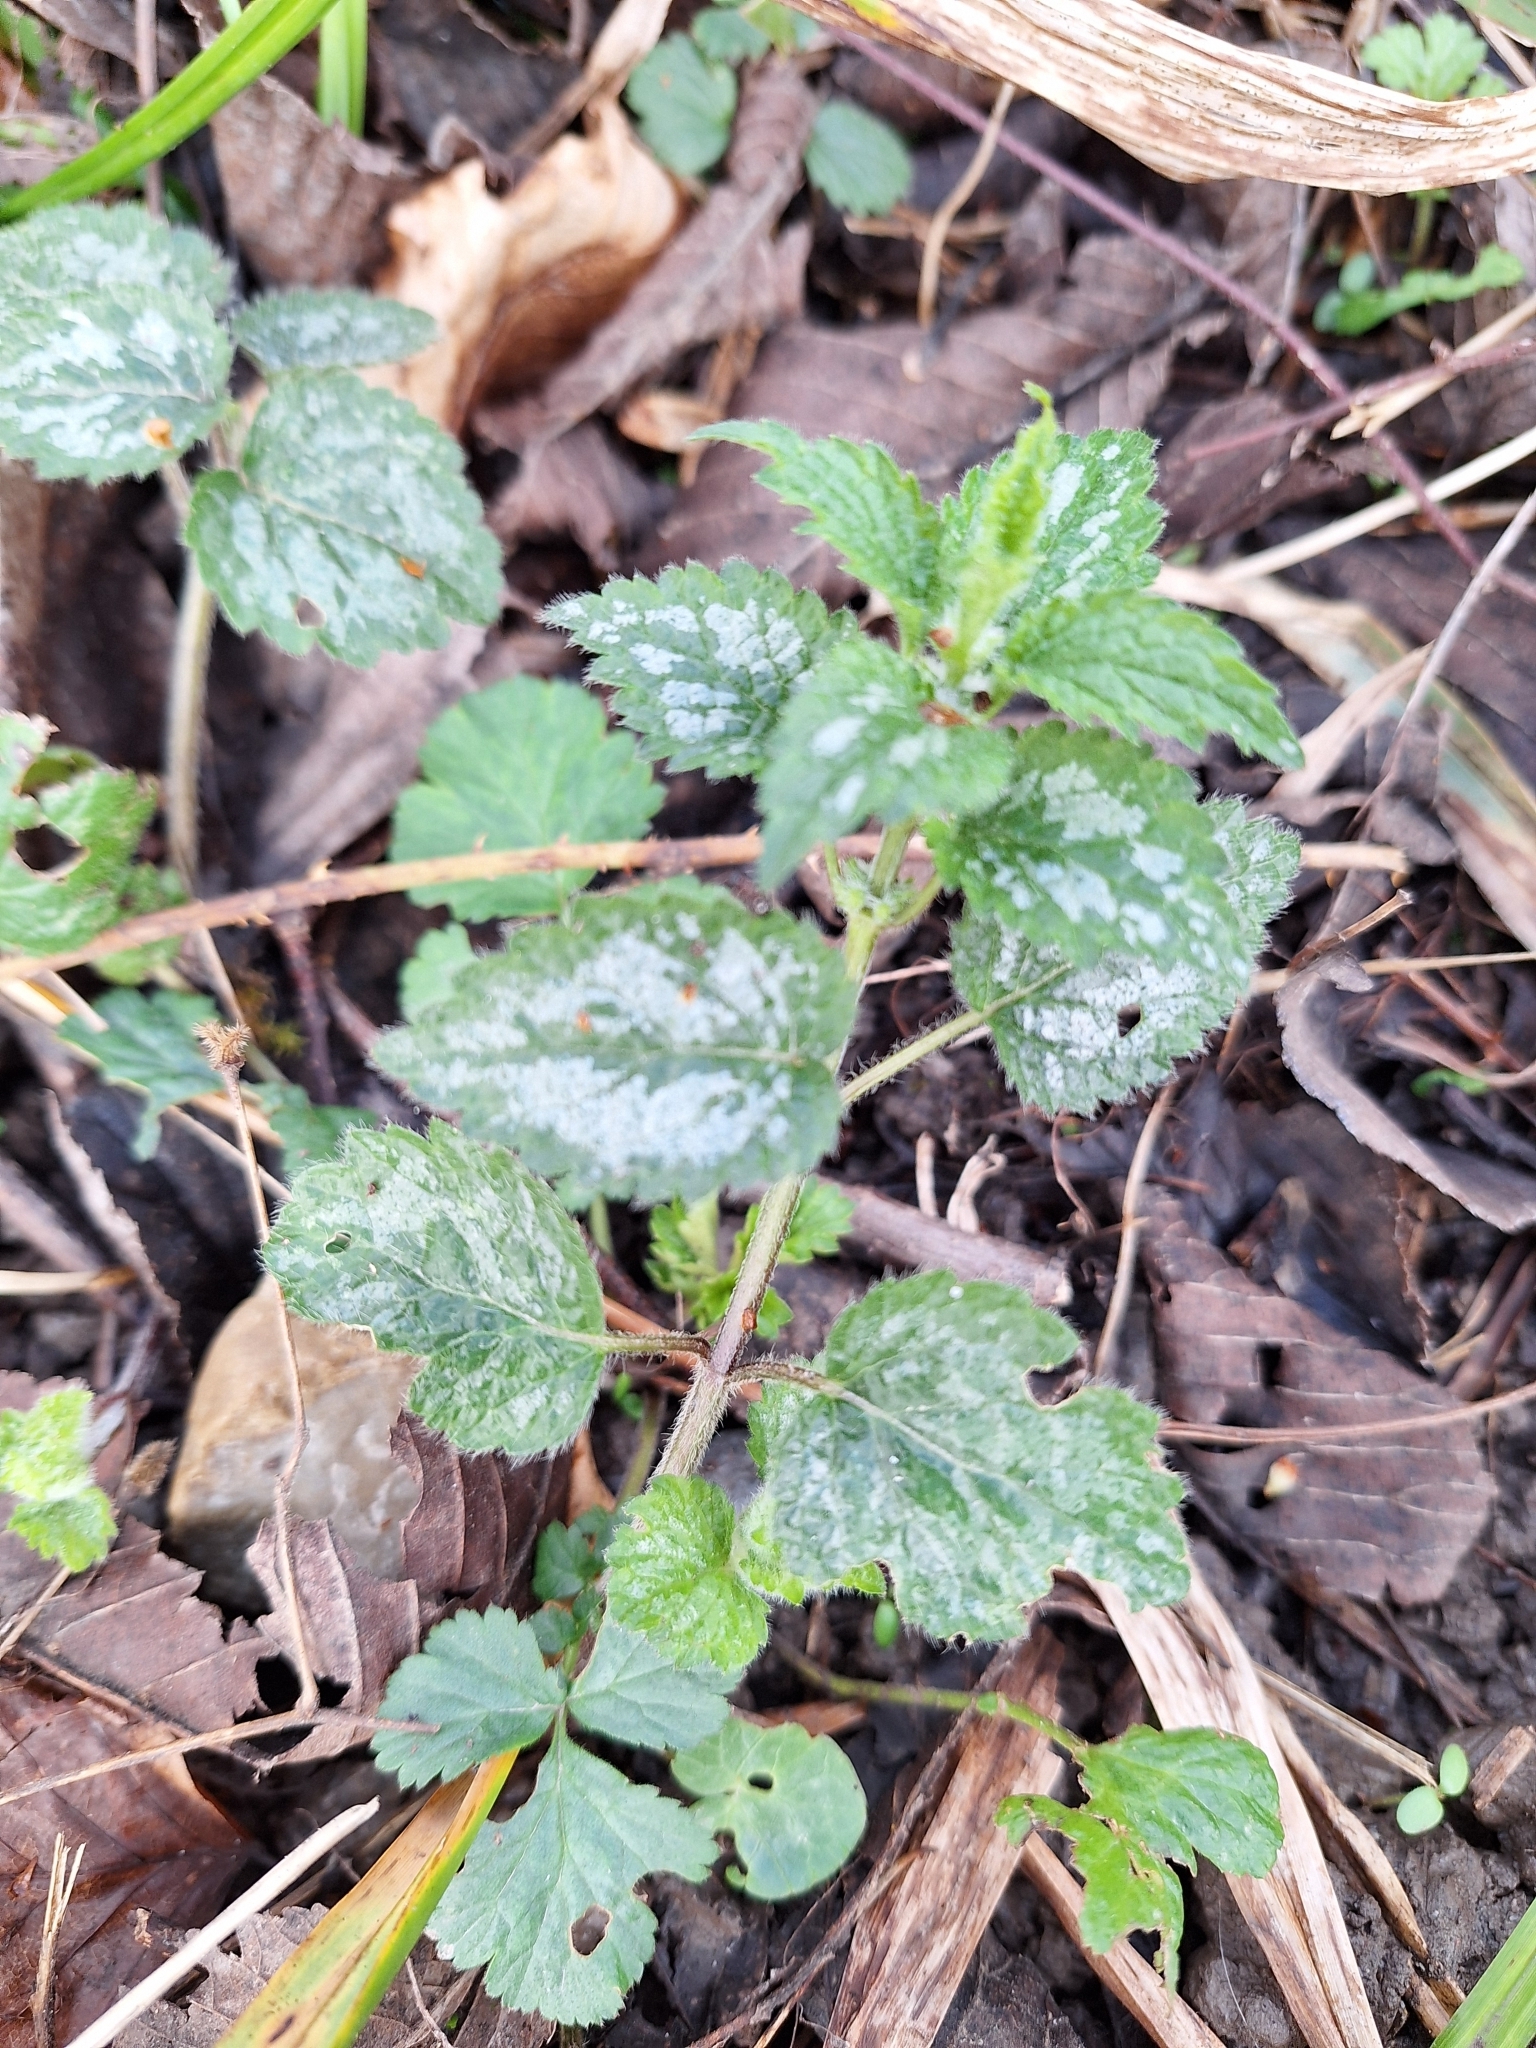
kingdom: Plantae
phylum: Tracheophyta
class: Magnoliopsida
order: Lamiales
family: Lamiaceae
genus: Lamium
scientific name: Lamium galeobdolon
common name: Yellow archangel
